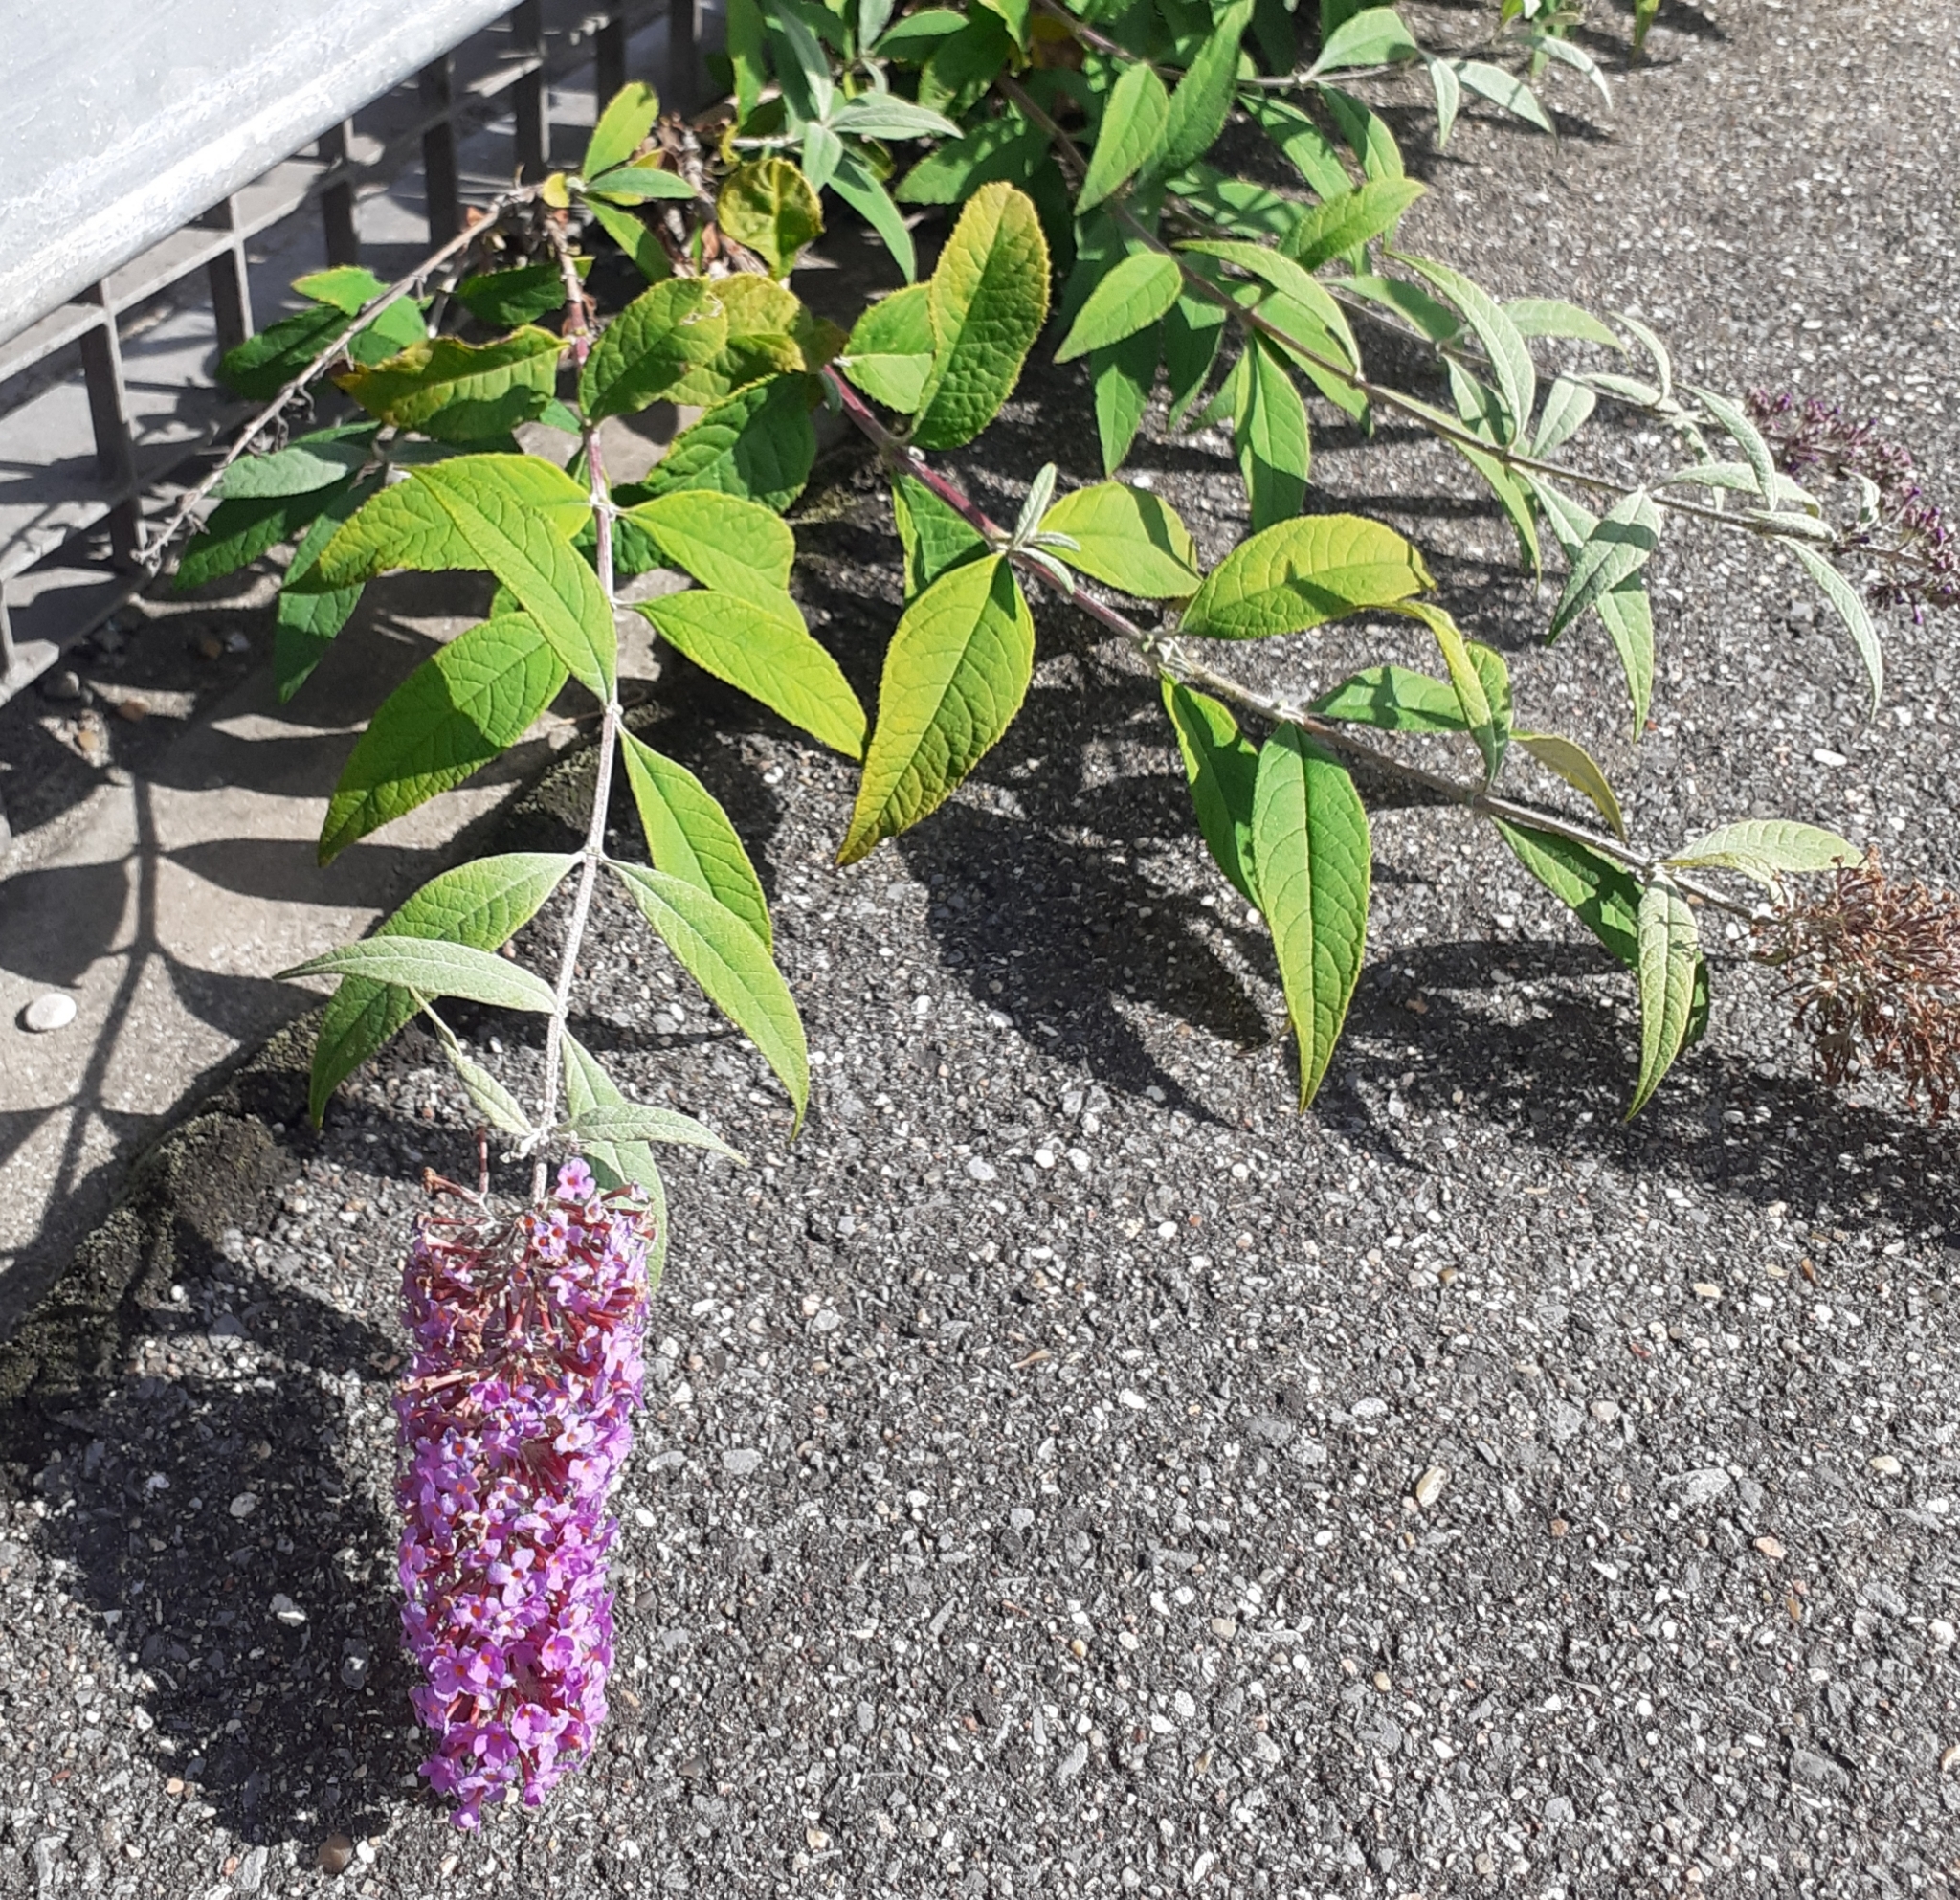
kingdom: Plantae
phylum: Tracheophyta
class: Magnoliopsida
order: Lamiales
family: Scrophulariaceae
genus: Buddleja
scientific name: Buddleja davidii
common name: Butterfly-bush
